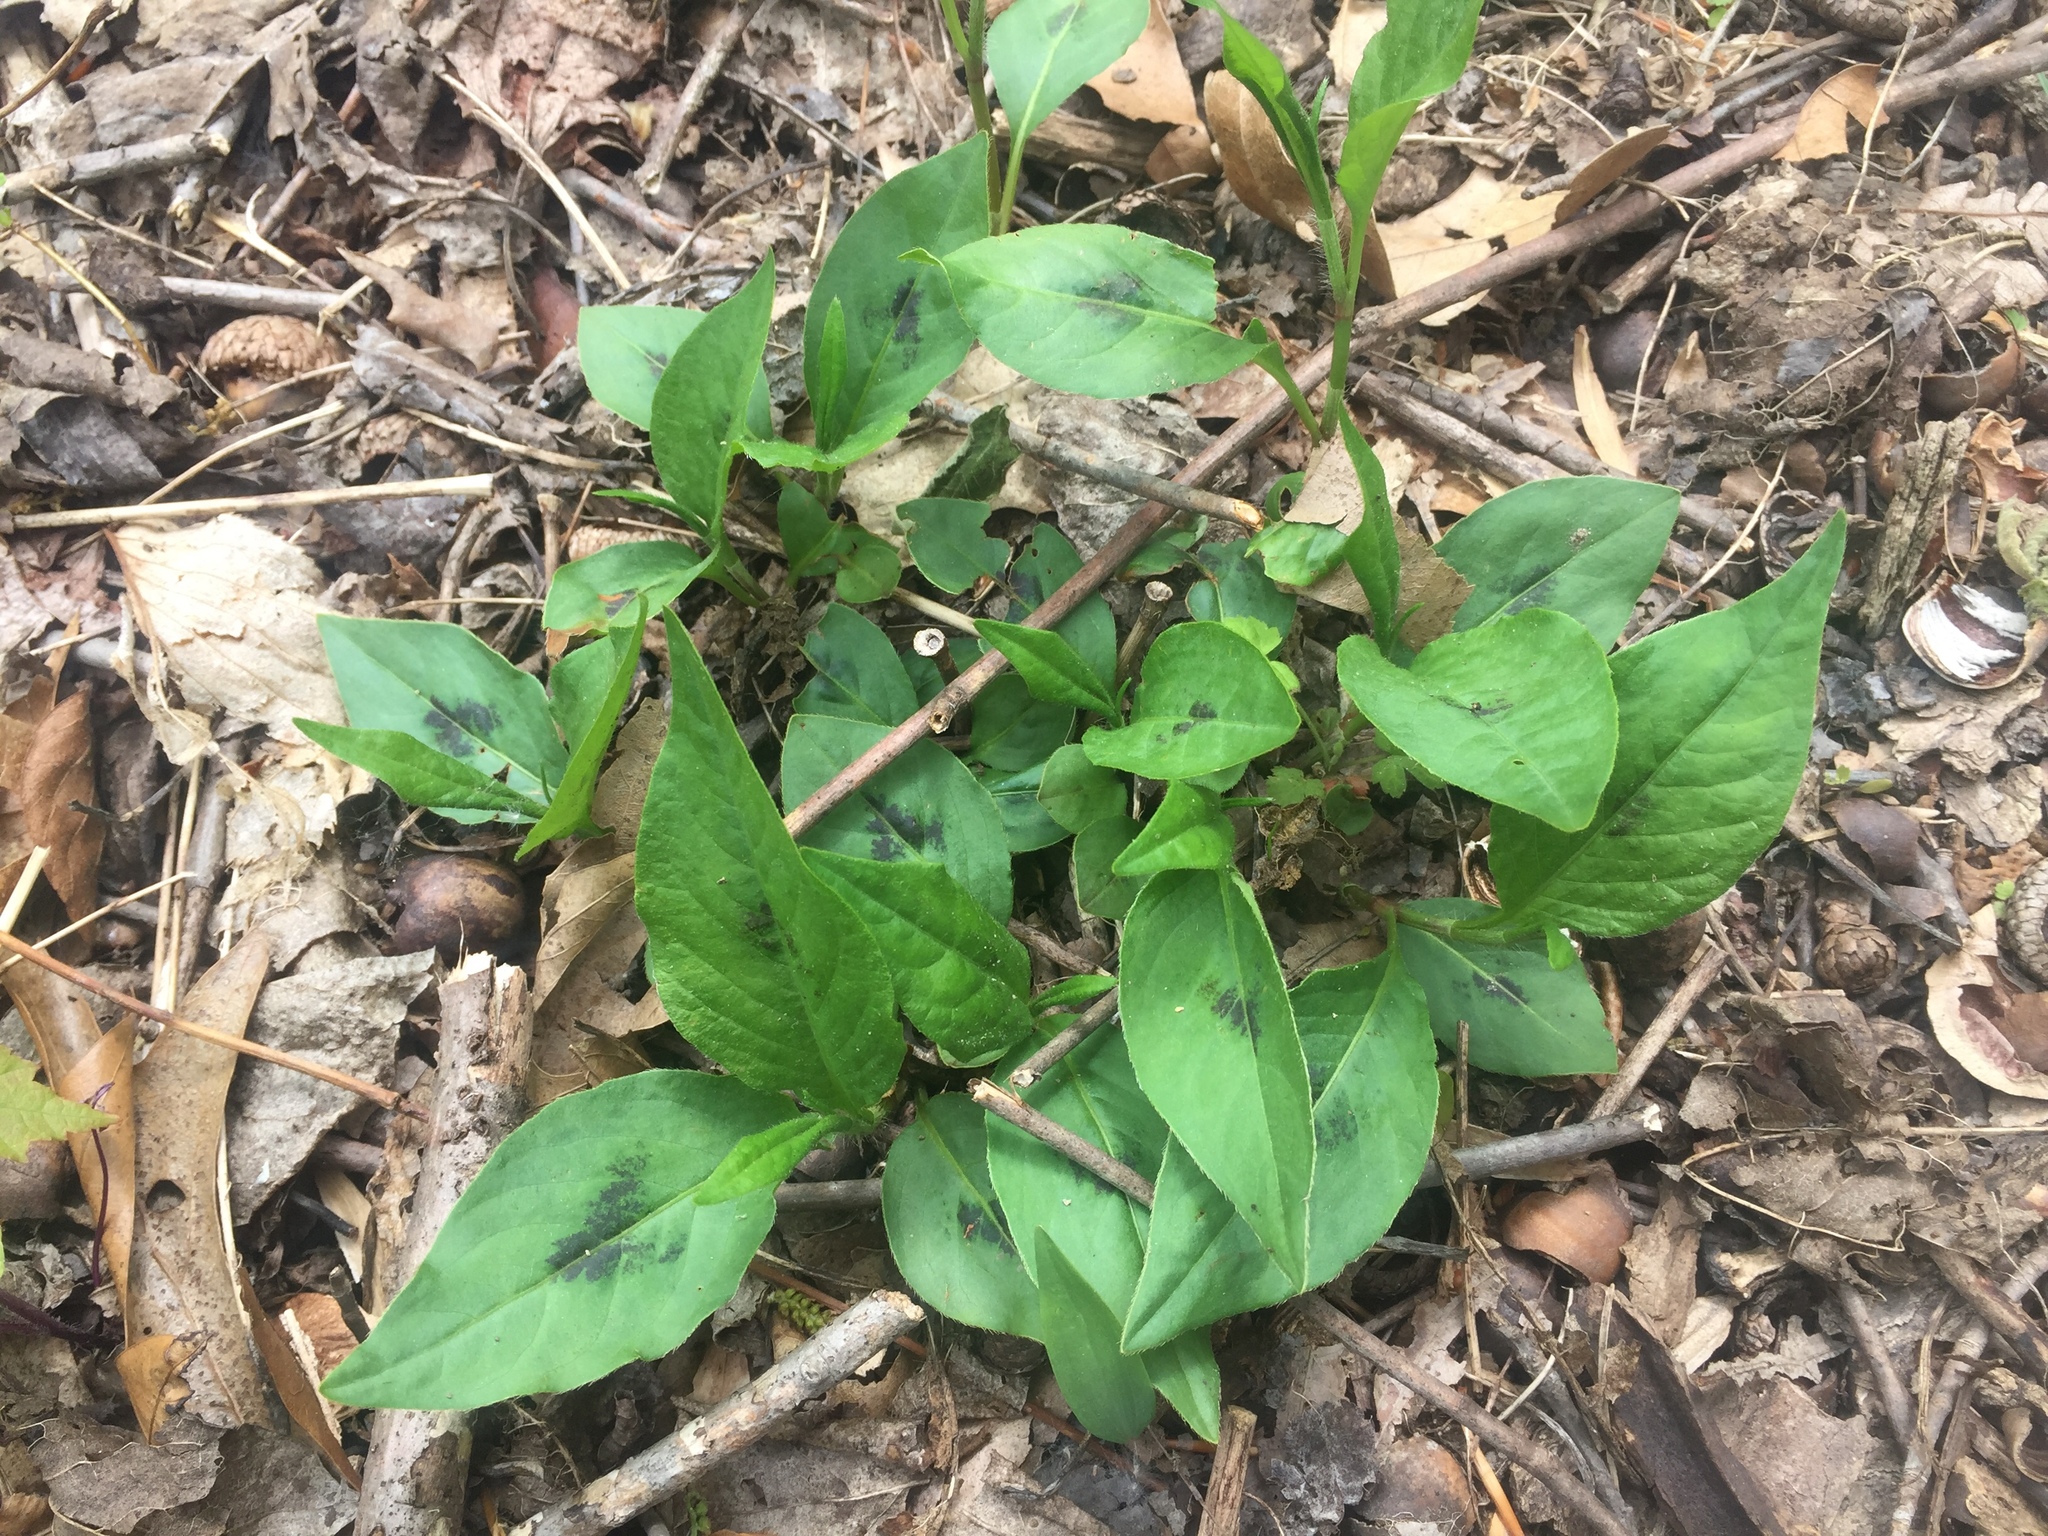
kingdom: Plantae
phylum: Tracheophyta
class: Magnoliopsida
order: Caryophyllales
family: Polygonaceae
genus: Persicaria
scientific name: Persicaria virginiana
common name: Jumpseed
